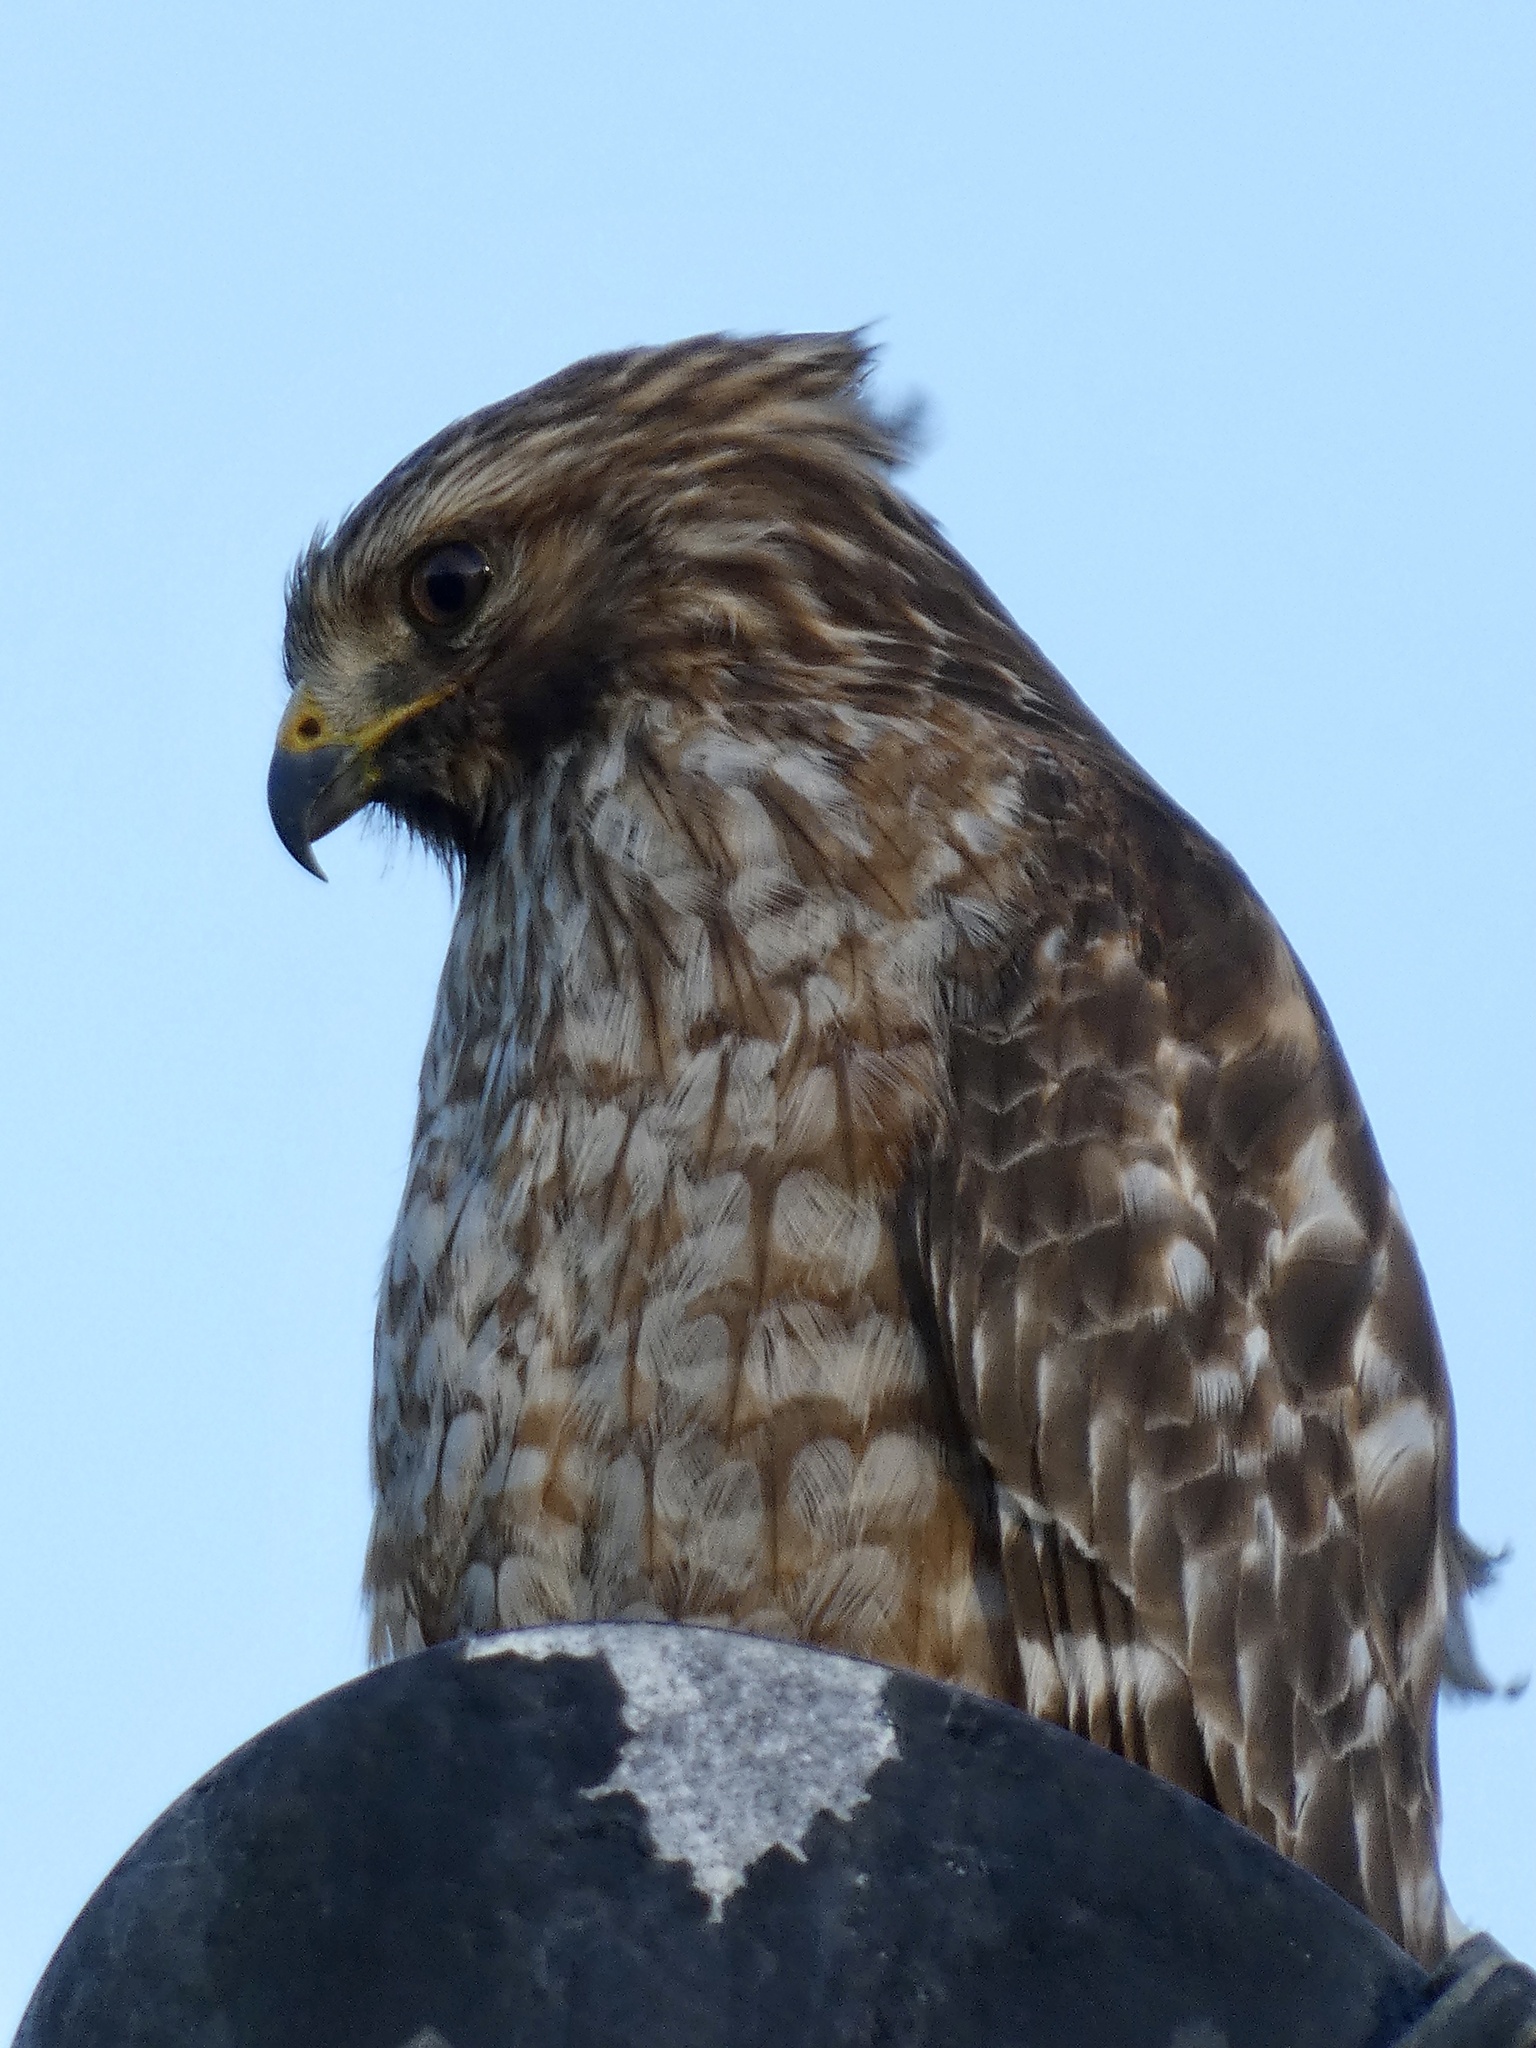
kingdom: Animalia
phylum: Chordata
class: Aves
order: Accipitriformes
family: Accipitridae
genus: Buteo
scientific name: Buteo lineatus
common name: Red-shouldered hawk
